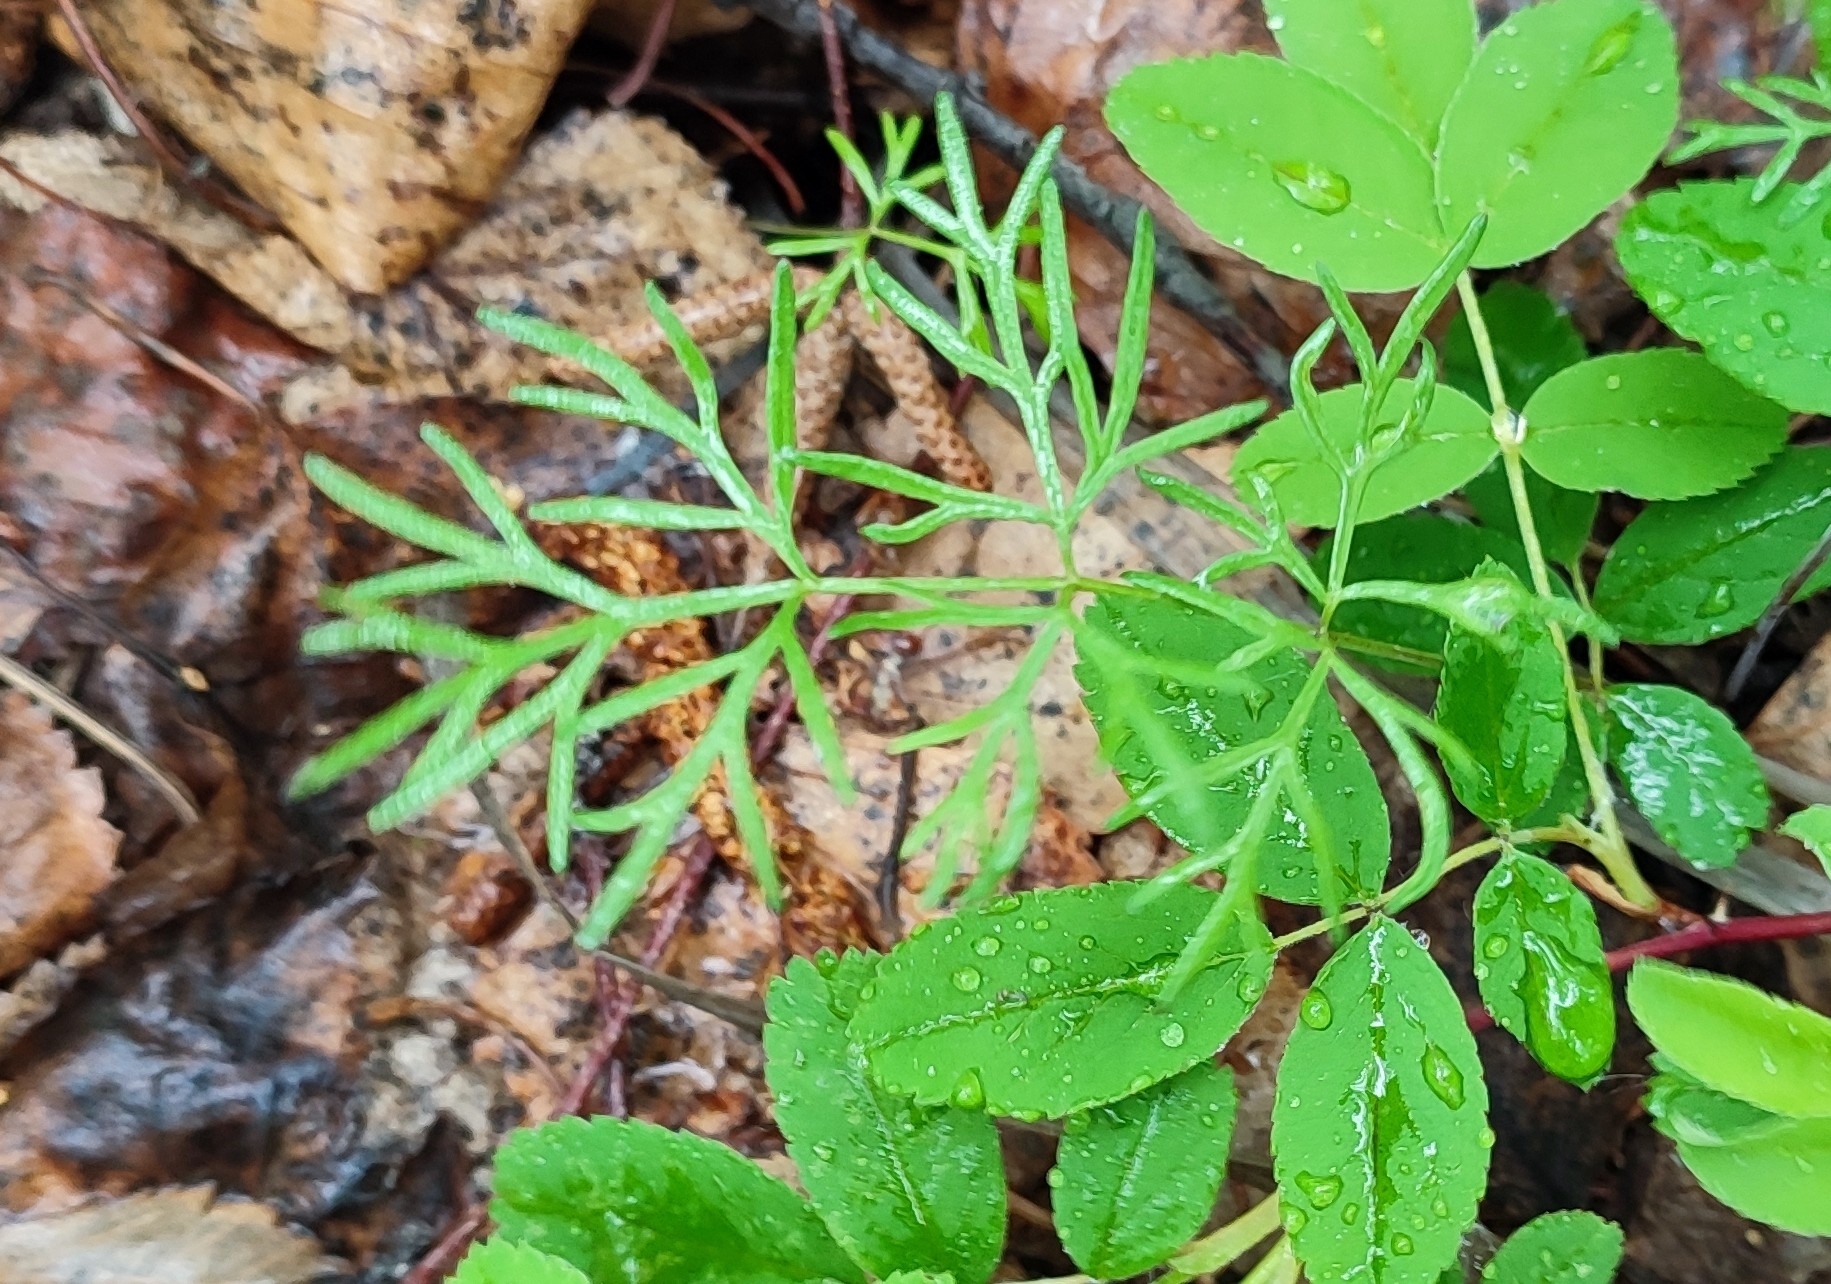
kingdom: Plantae
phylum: Tracheophyta
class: Magnoliopsida
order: Apiales
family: Apiaceae
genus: Kadenia
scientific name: Kadenia dubia
